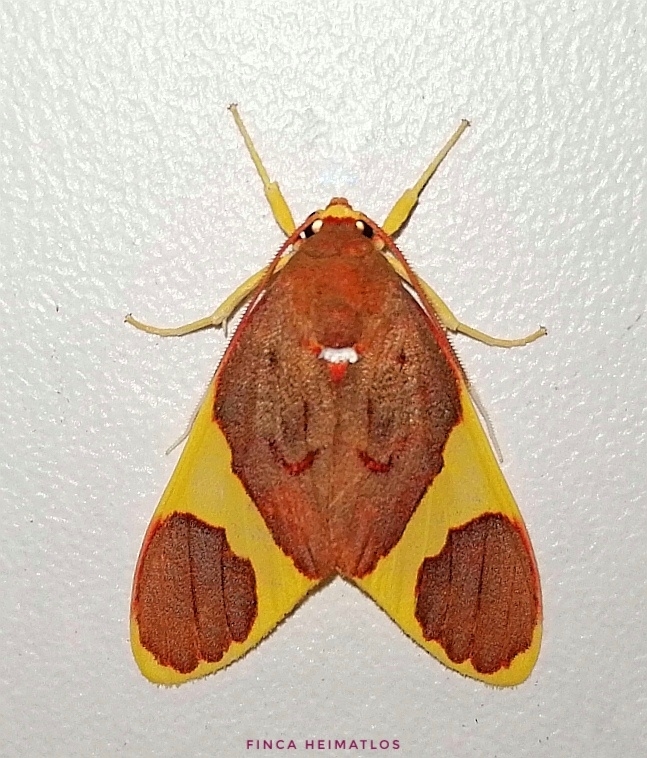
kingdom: Animalia
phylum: Arthropoda
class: Insecta
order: Lepidoptera
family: Erebidae
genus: Paranerita
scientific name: Paranerita lophosticta
